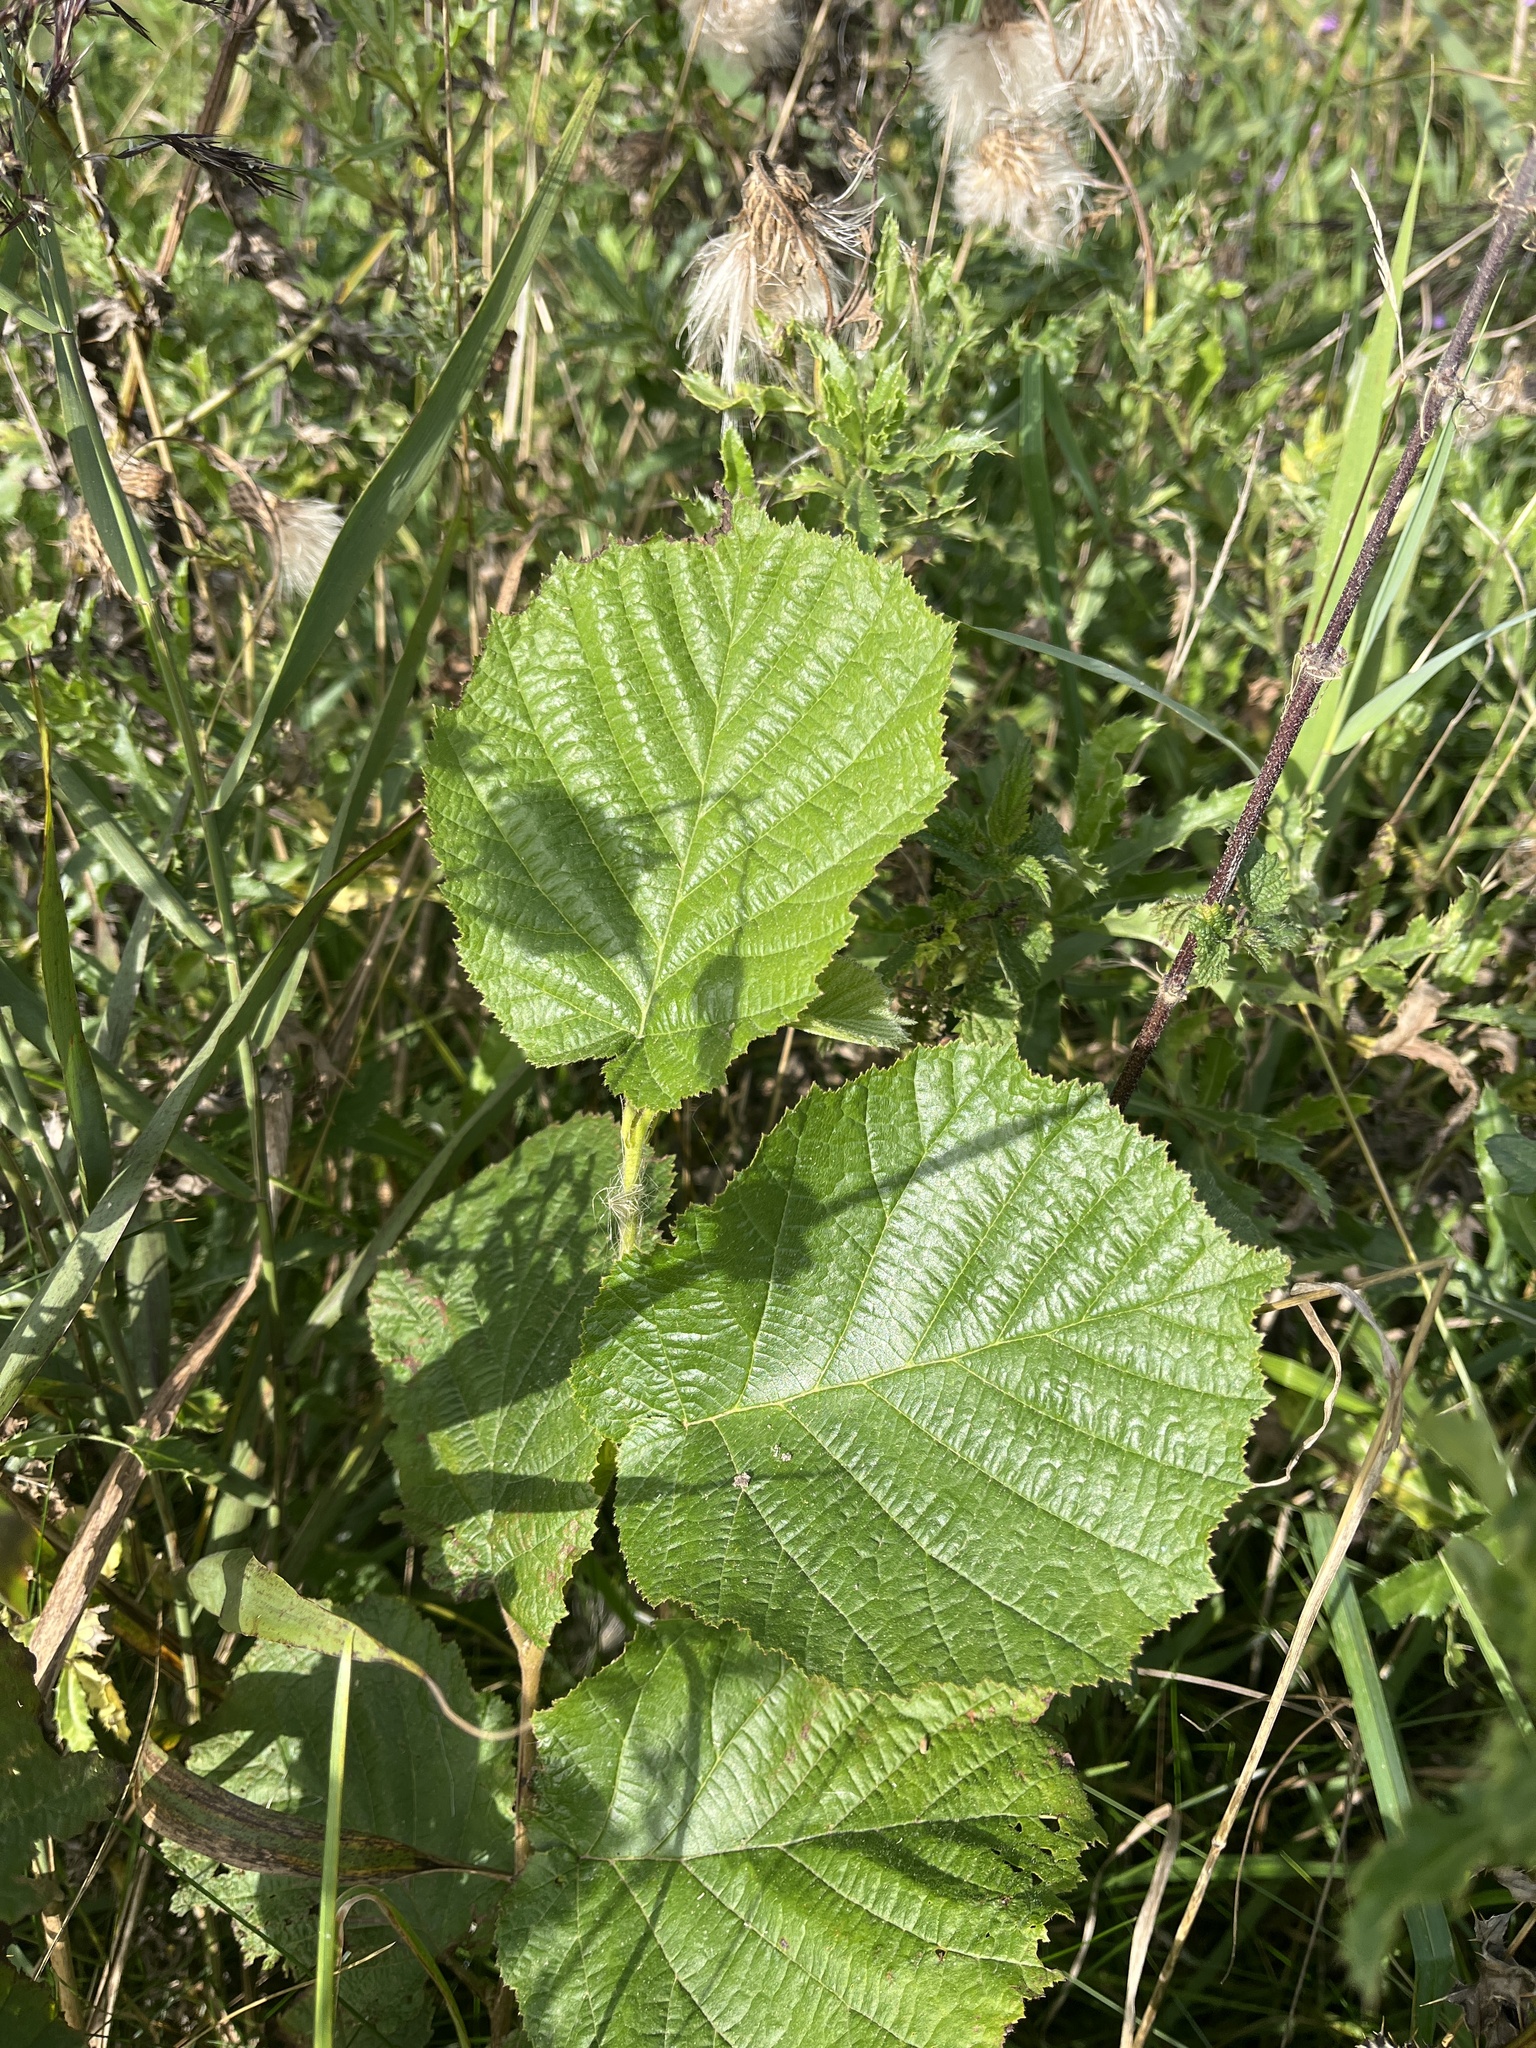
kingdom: Plantae
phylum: Tracheophyta
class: Magnoliopsida
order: Fagales
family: Betulaceae
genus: Corylus
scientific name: Corylus avellana
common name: European hazel
